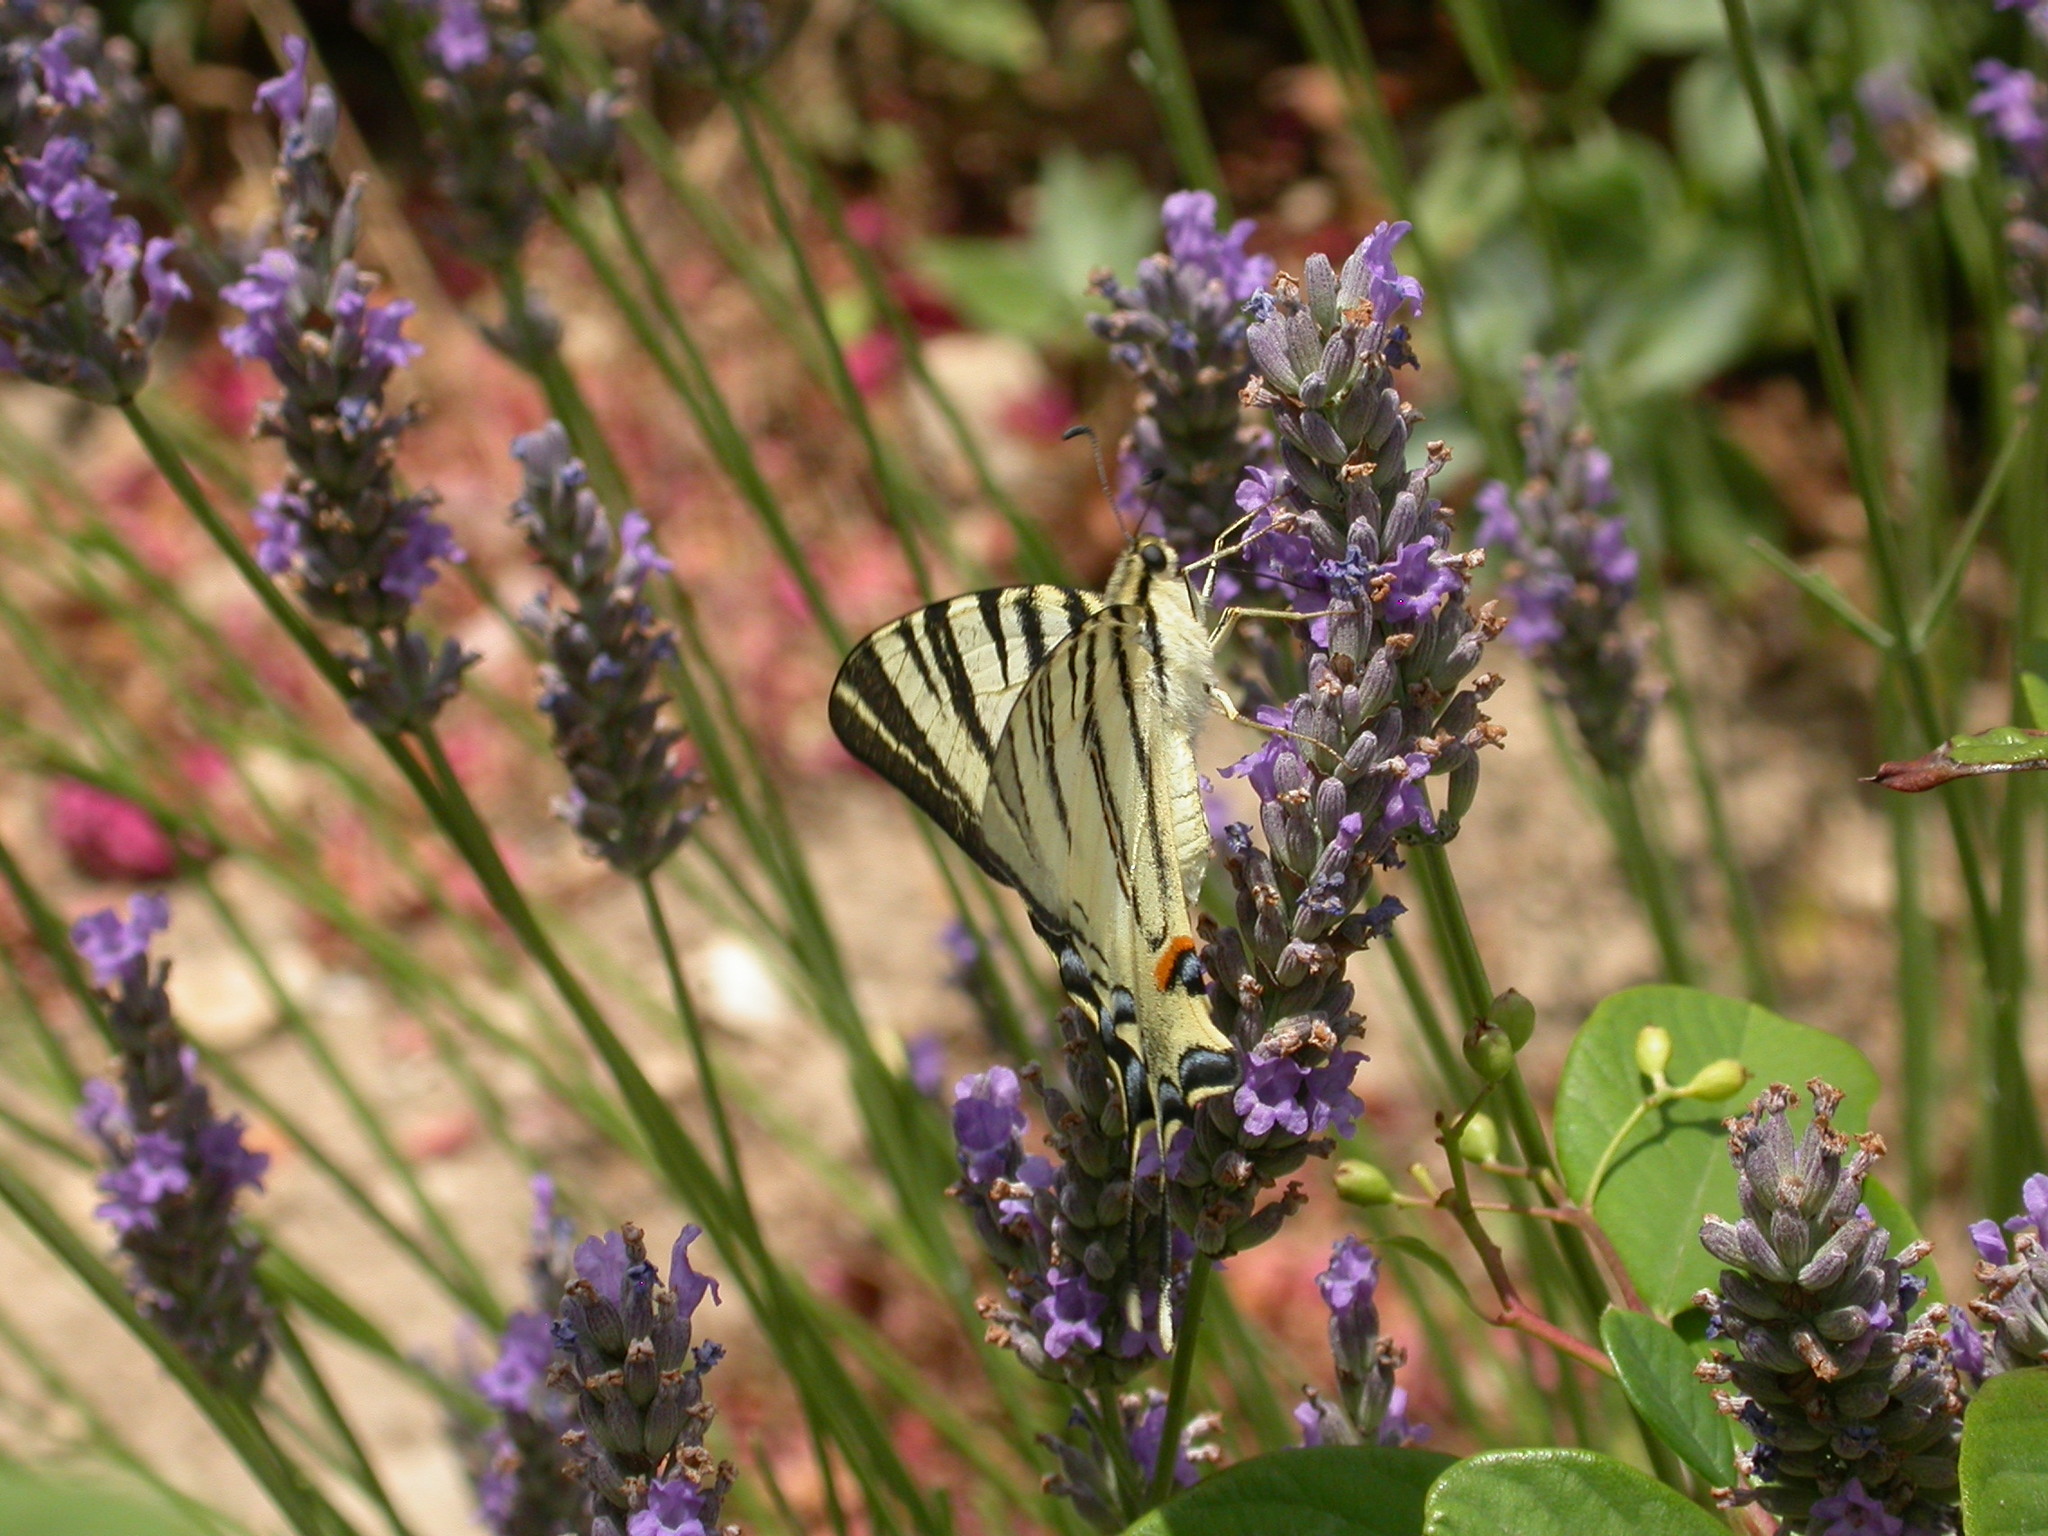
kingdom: Animalia
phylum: Arthropoda
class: Insecta
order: Lepidoptera
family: Papilionidae
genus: Iphiclides
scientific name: Iphiclides podalirius
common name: Scarce swallowtail
